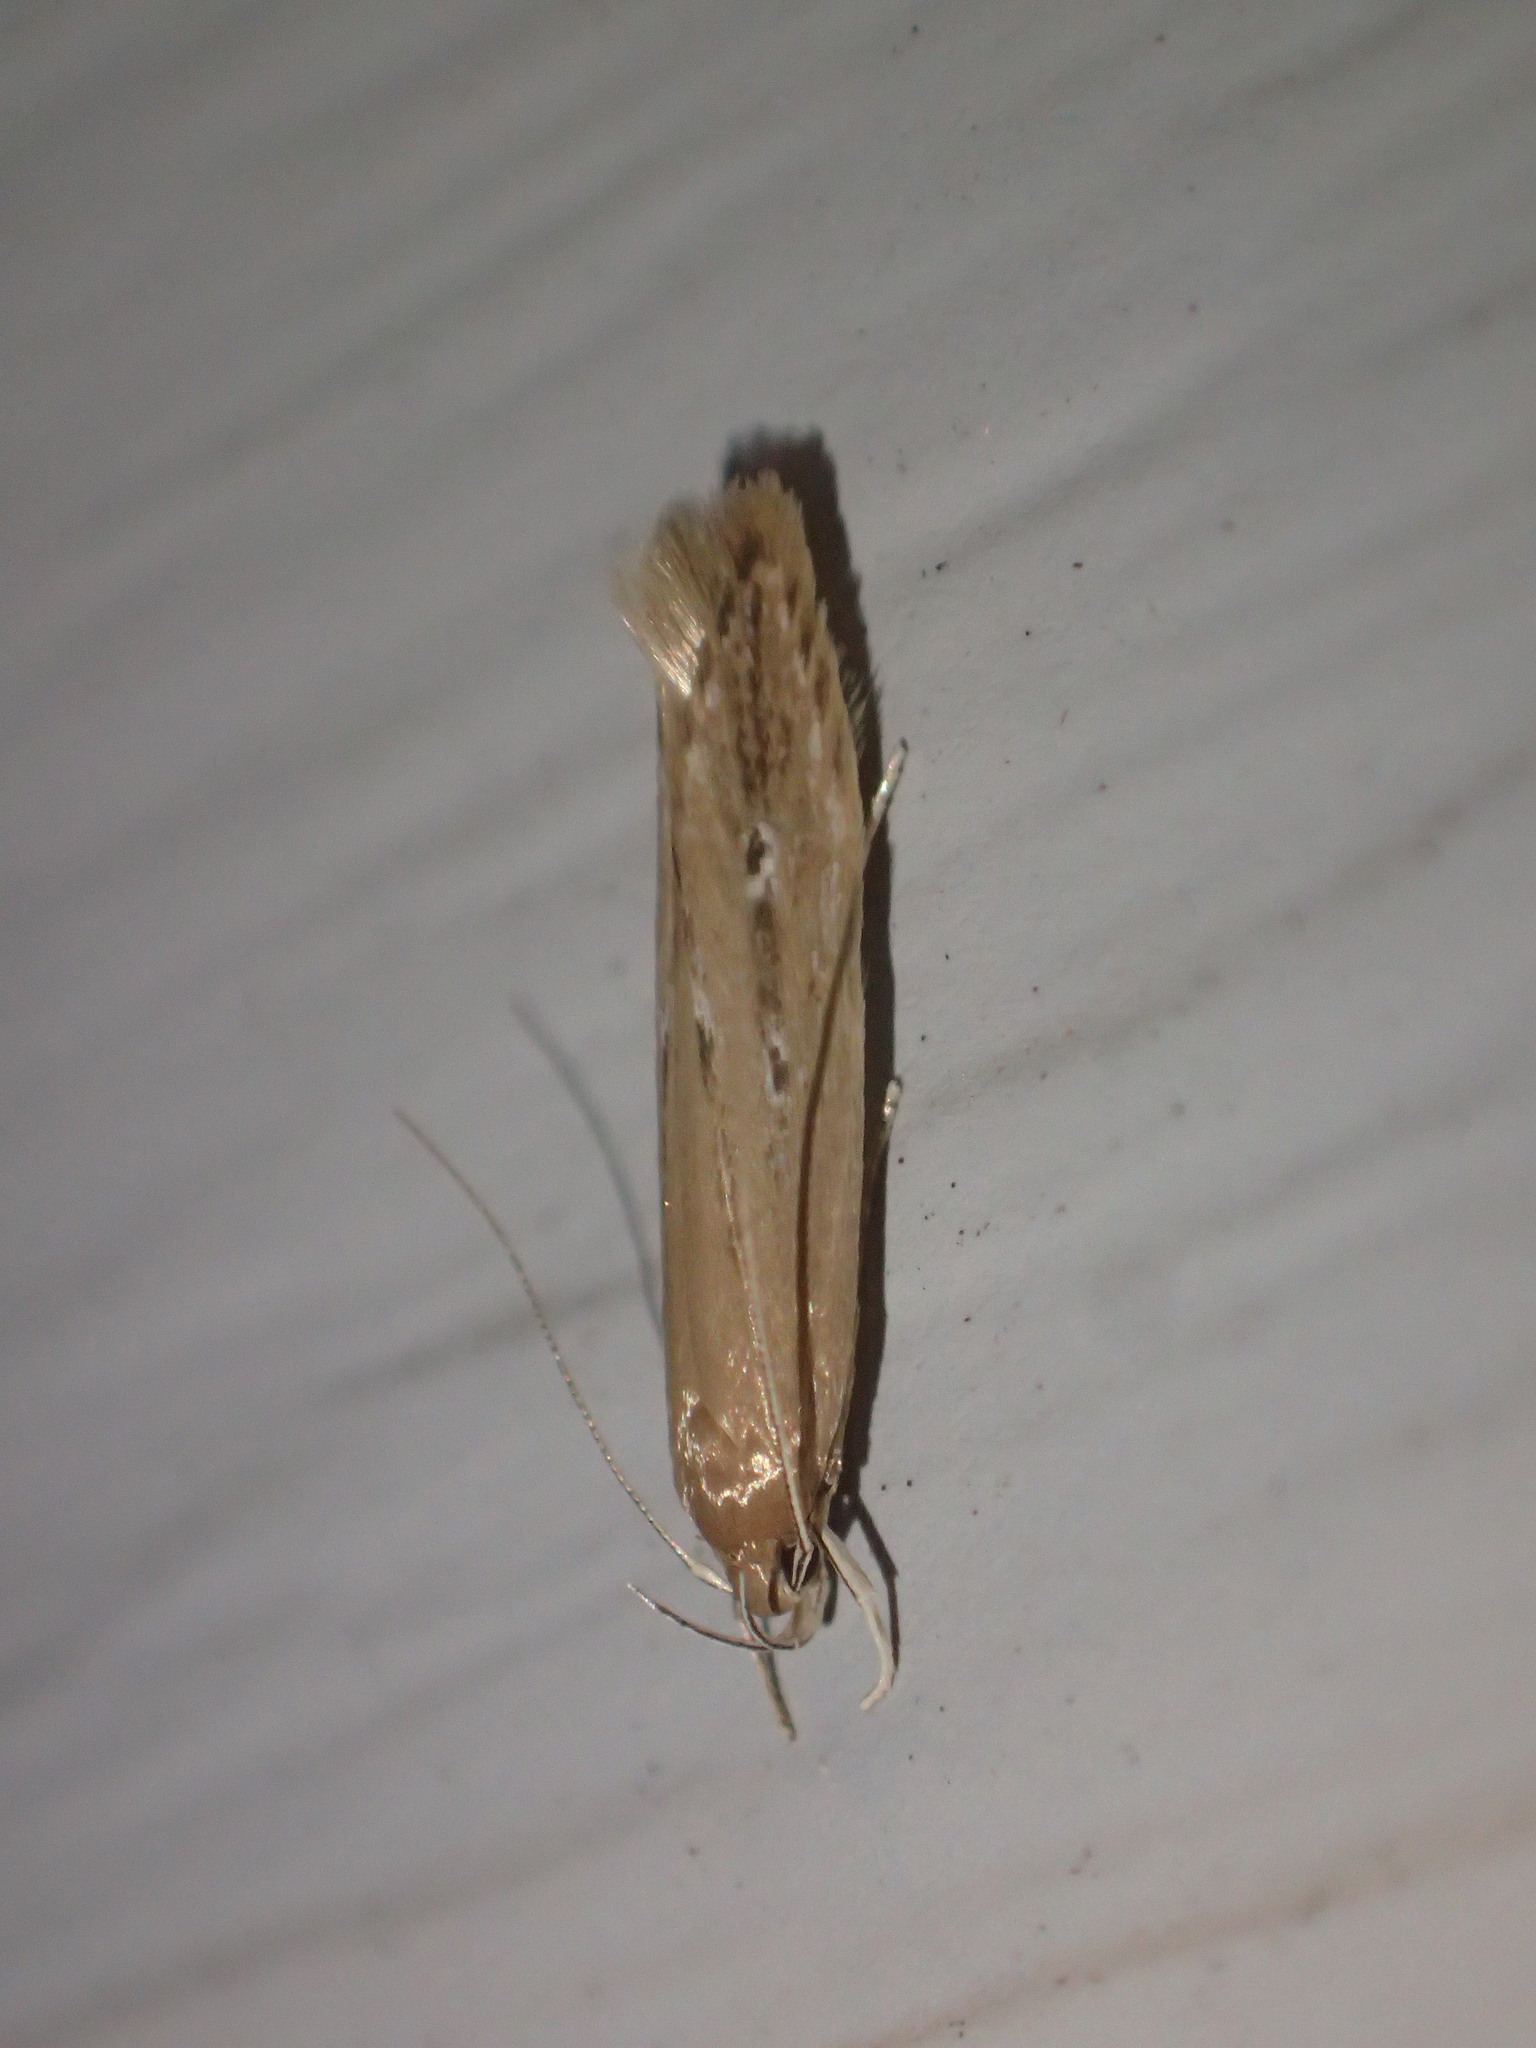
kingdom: Animalia
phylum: Arthropoda
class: Insecta
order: Lepidoptera
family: Cosmopterigidae
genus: Limnaecia
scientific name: Limnaecia phragmitella
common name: Bulrush cosmet
